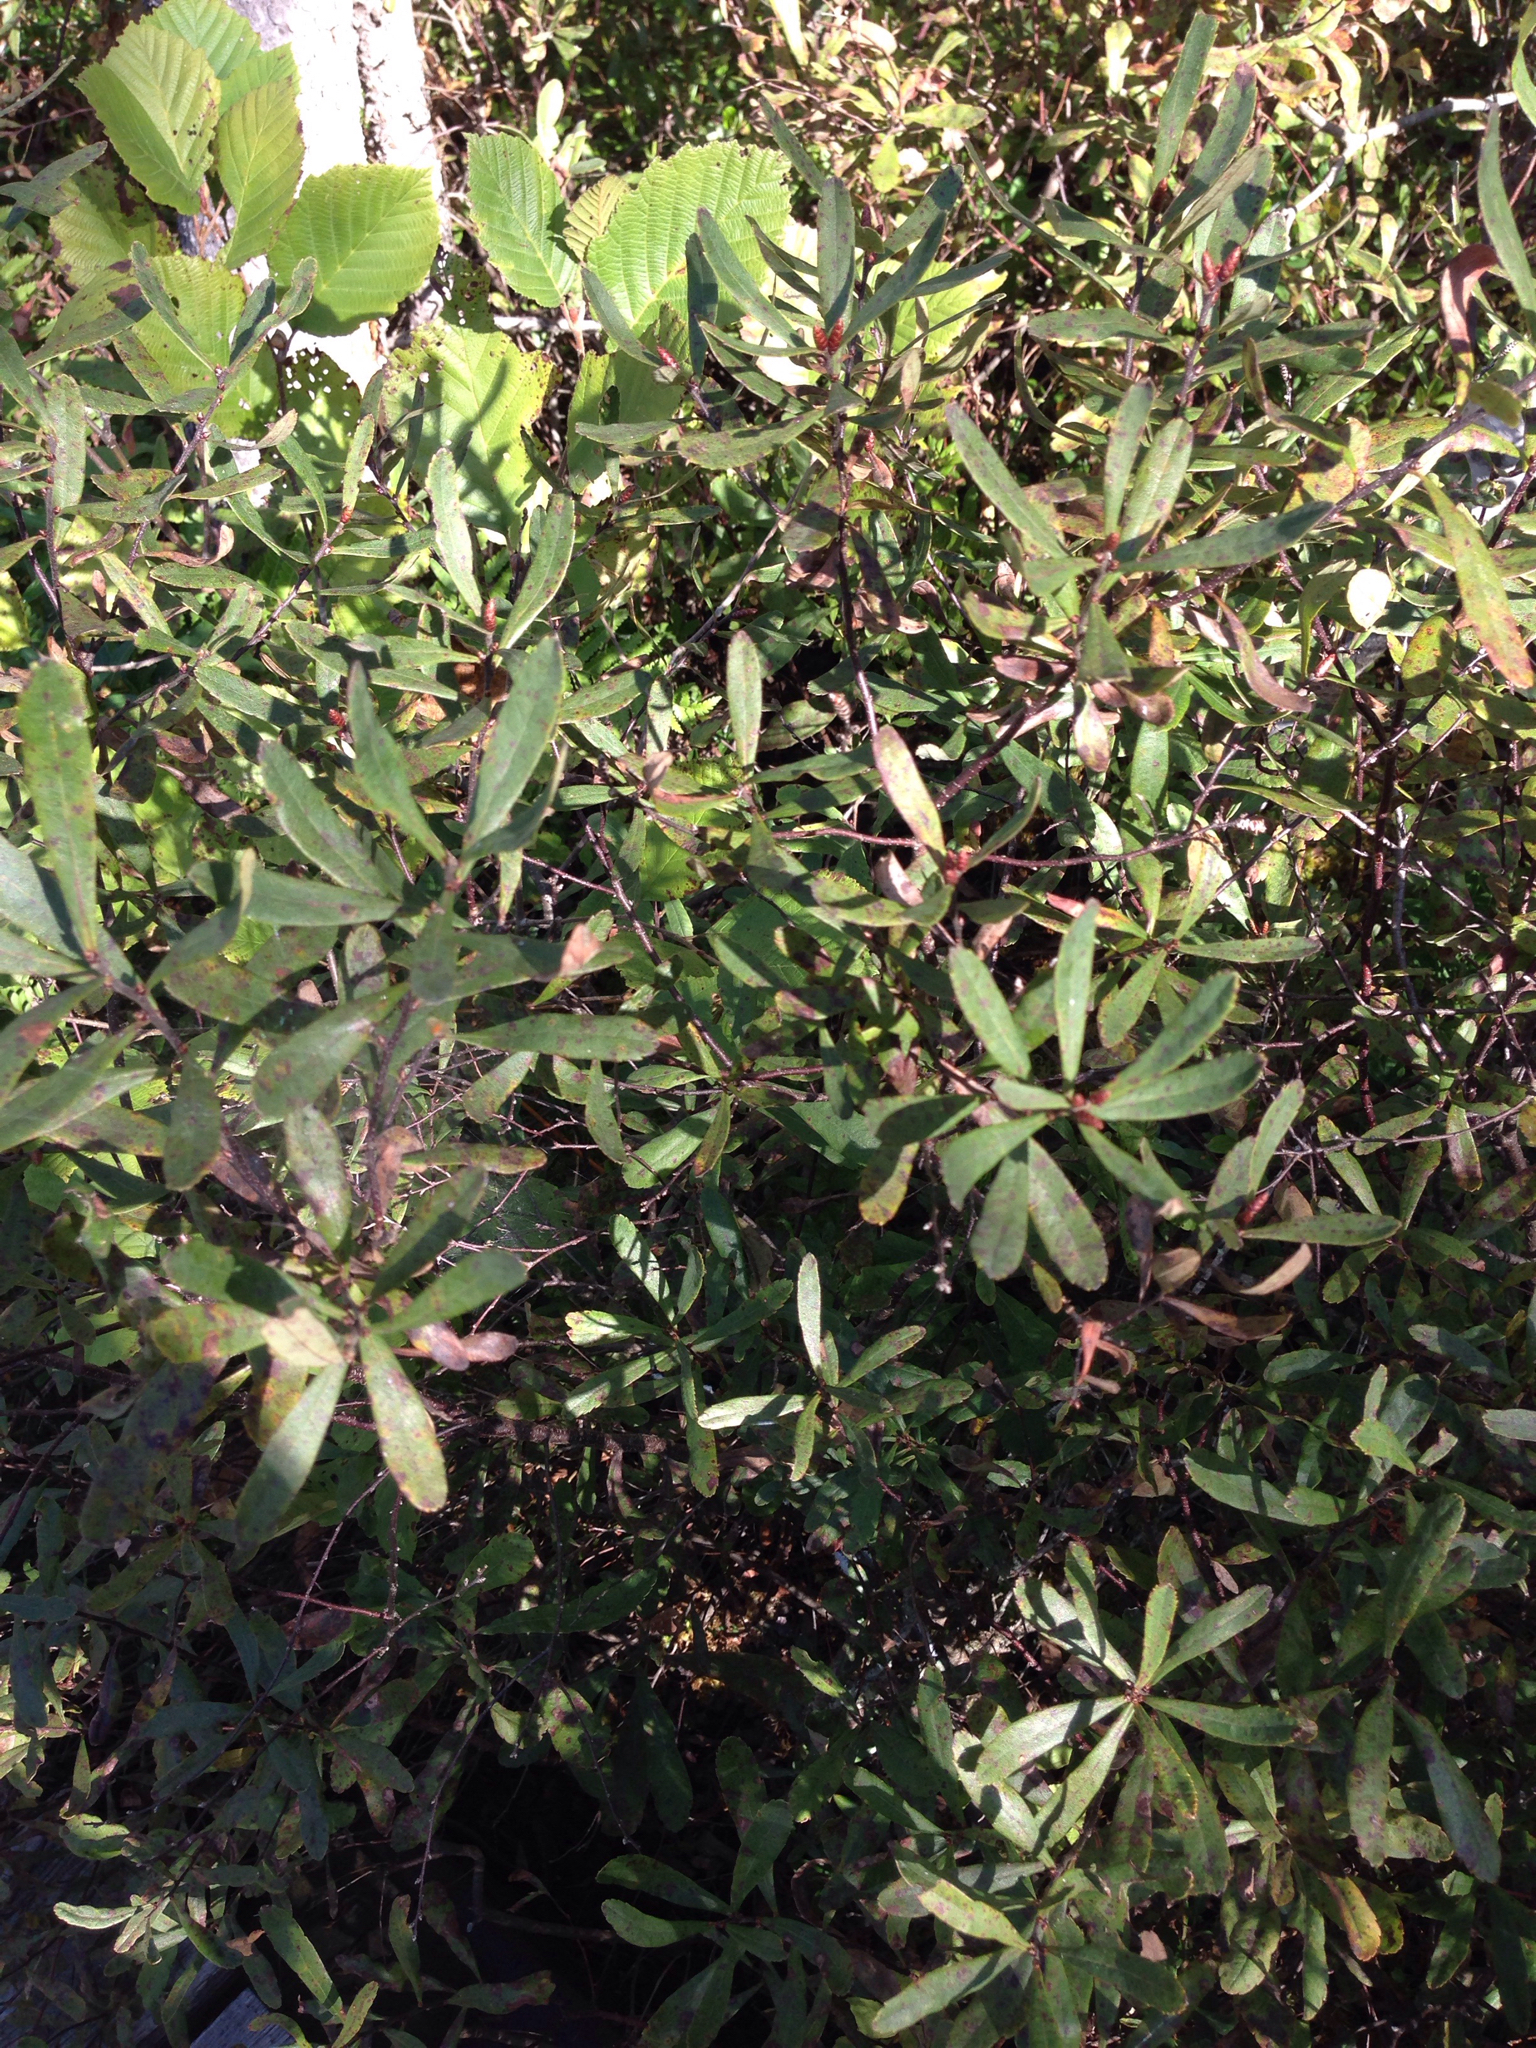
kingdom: Plantae
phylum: Tracheophyta
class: Magnoliopsida
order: Fagales
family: Myricaceae
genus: Myrica
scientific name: Myrica gale
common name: Sweet gale
